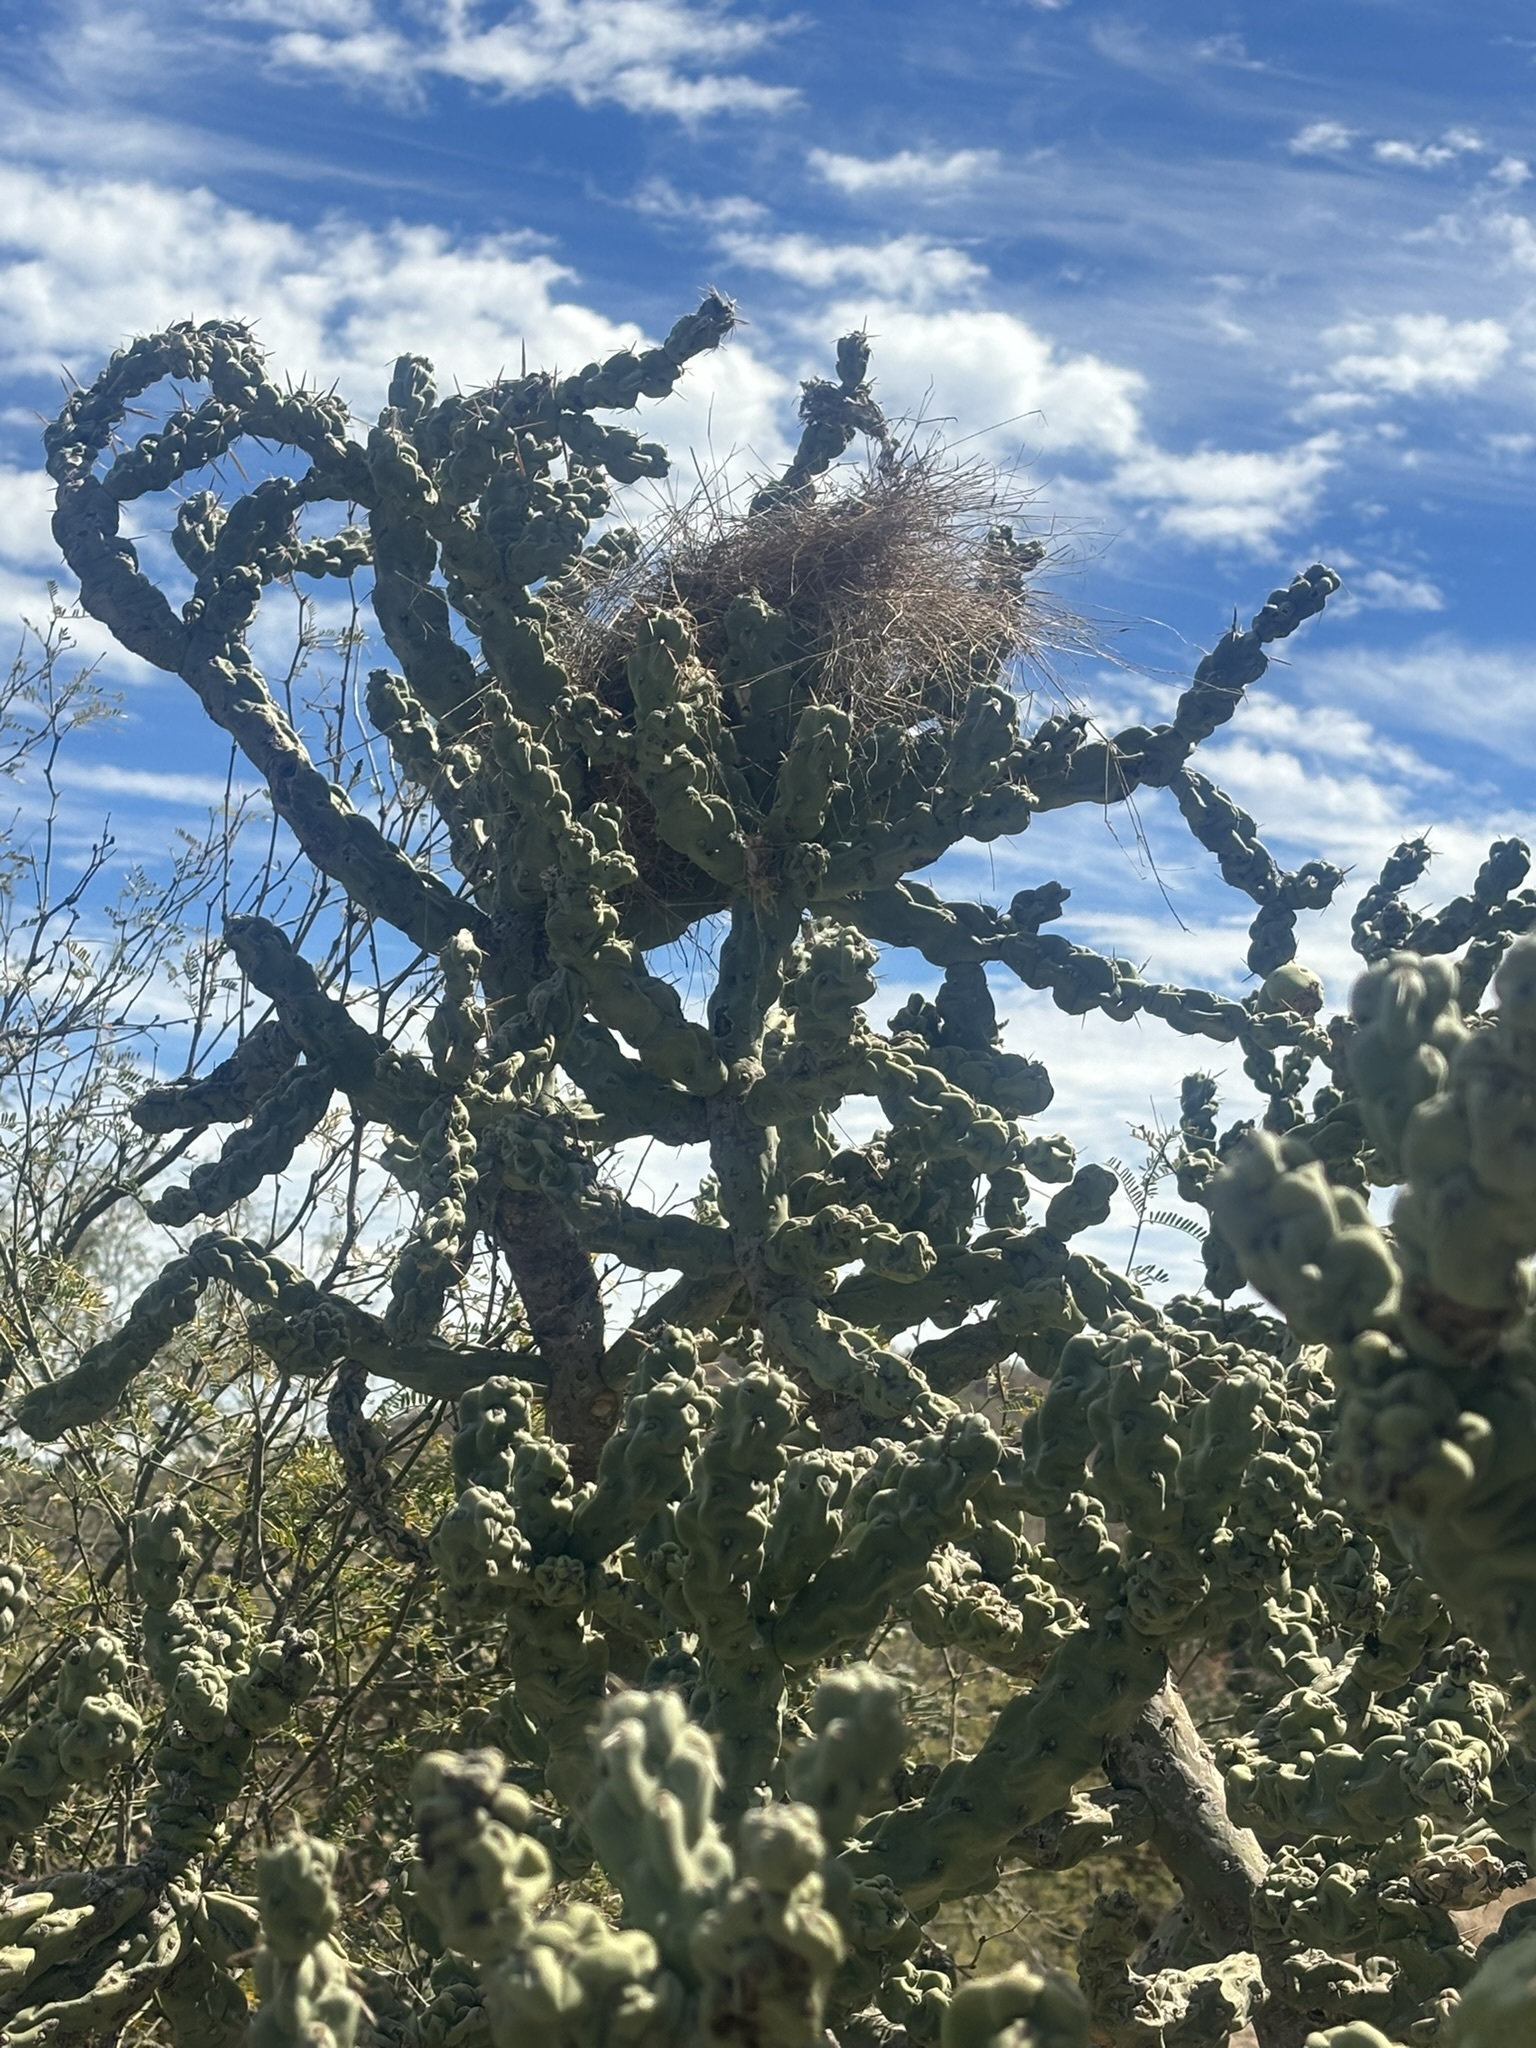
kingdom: Plantae
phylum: Tracheophyta
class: Magnoliopsida
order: Caryophyllales
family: Cactaceae
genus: Cylindropuntia
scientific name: Cylindropuntia cholla
